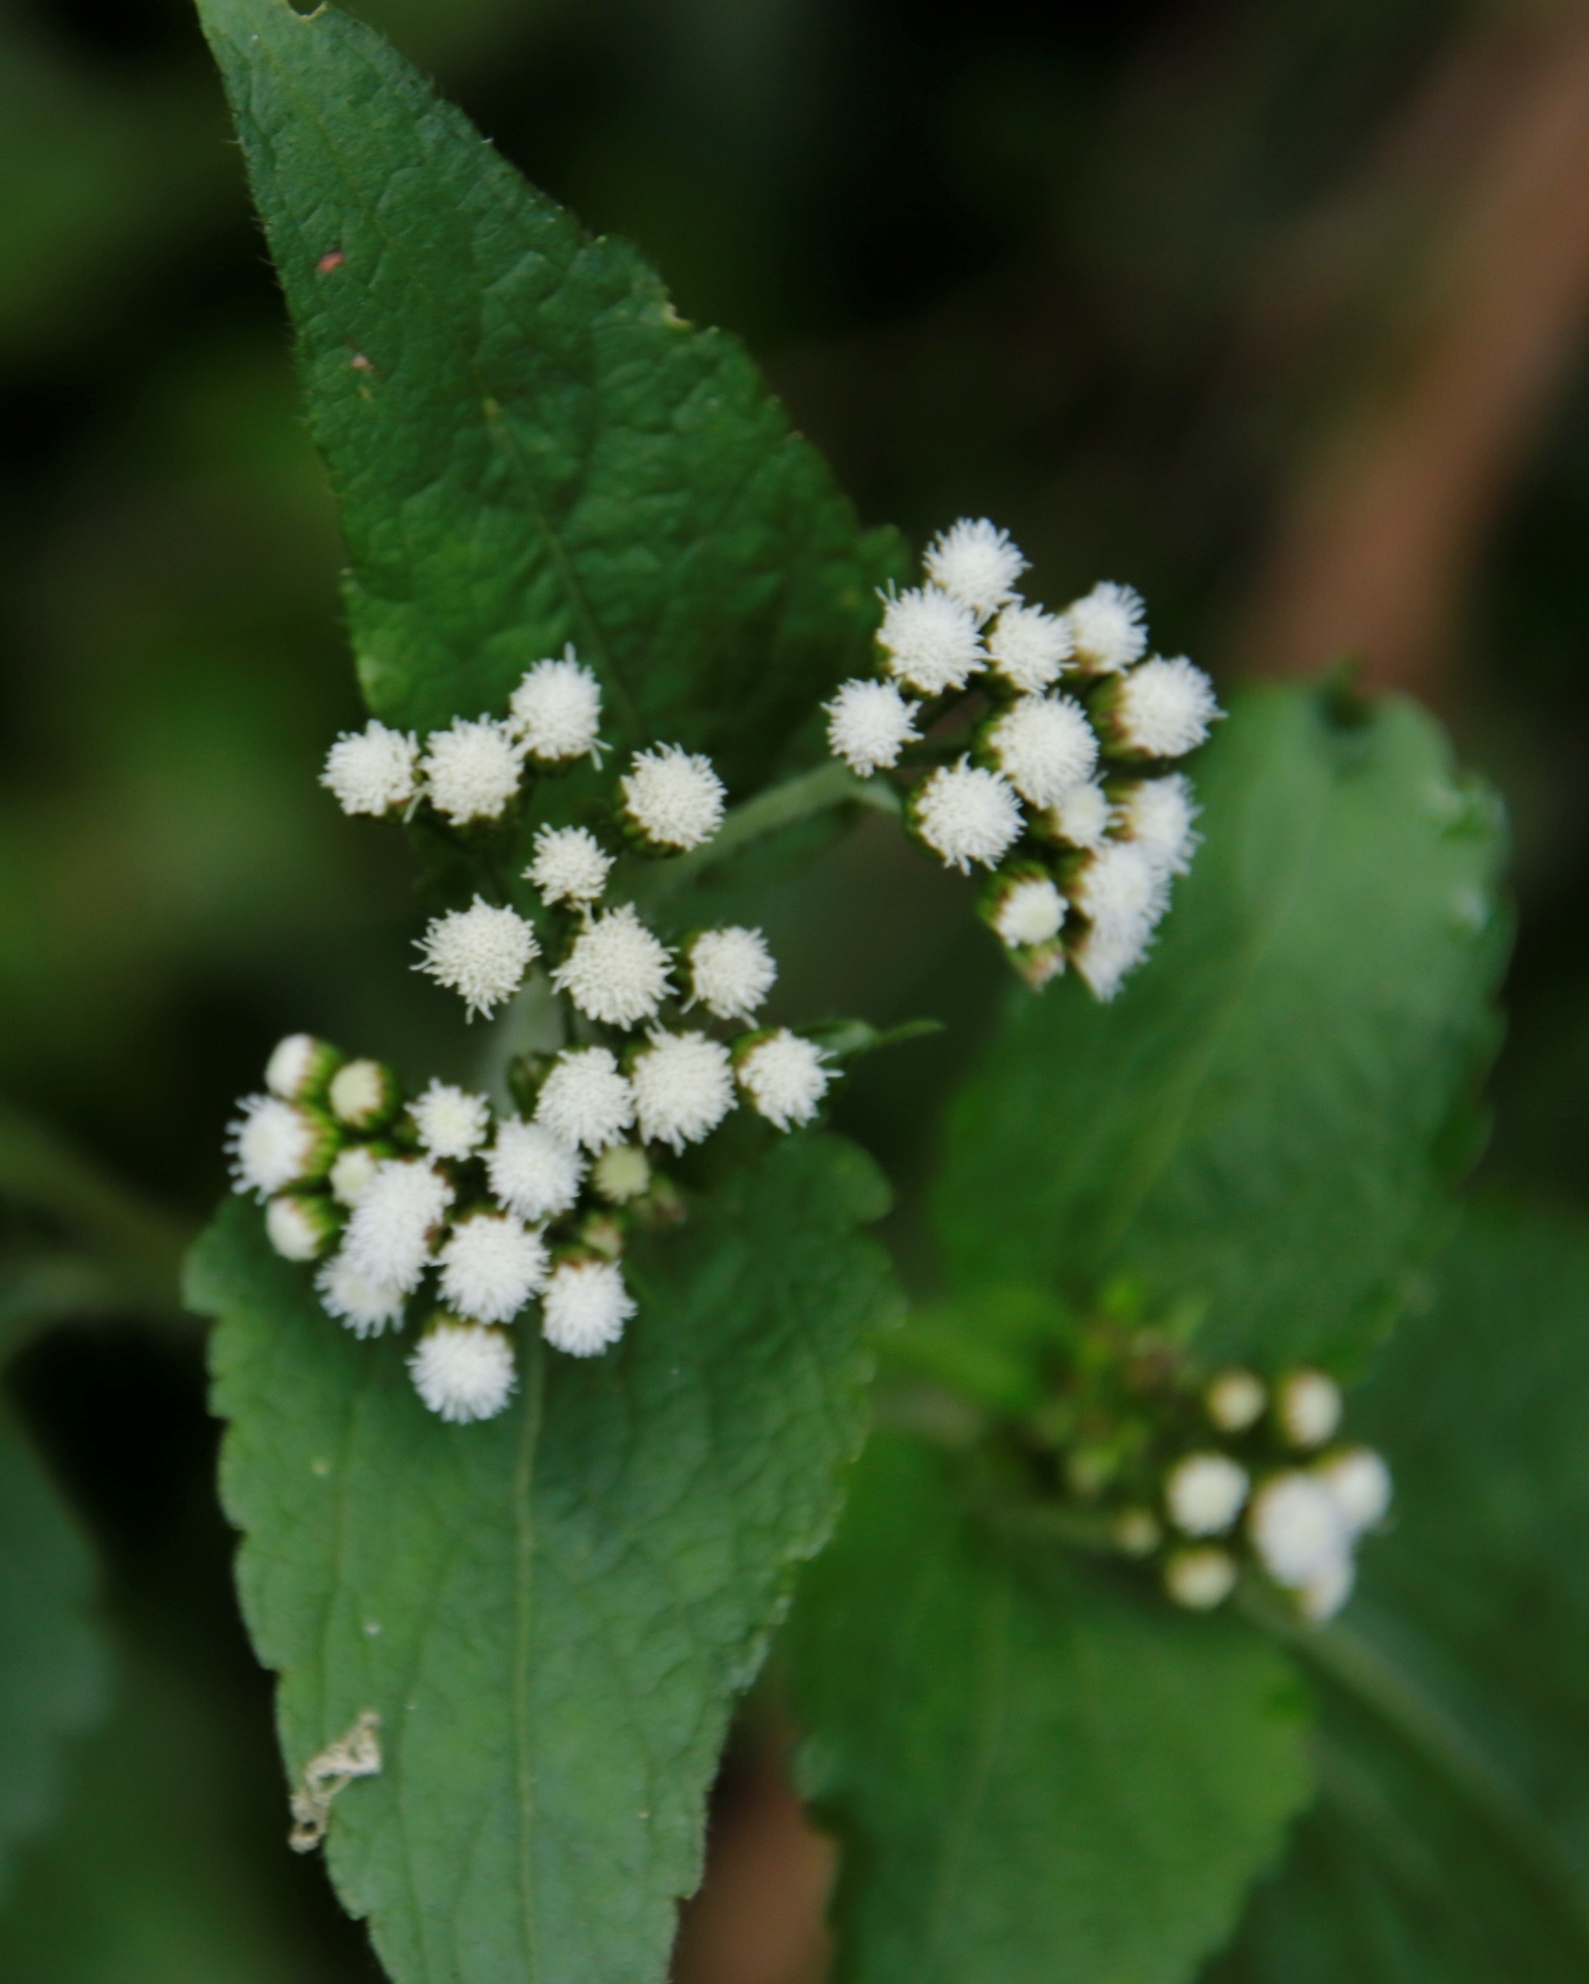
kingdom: Plantae
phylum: Tracheophyta
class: Magnoliopsida
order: Asterales
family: Asteraceae
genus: Ageratum
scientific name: Ageratum conyzoides
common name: Tropical whiteweed
